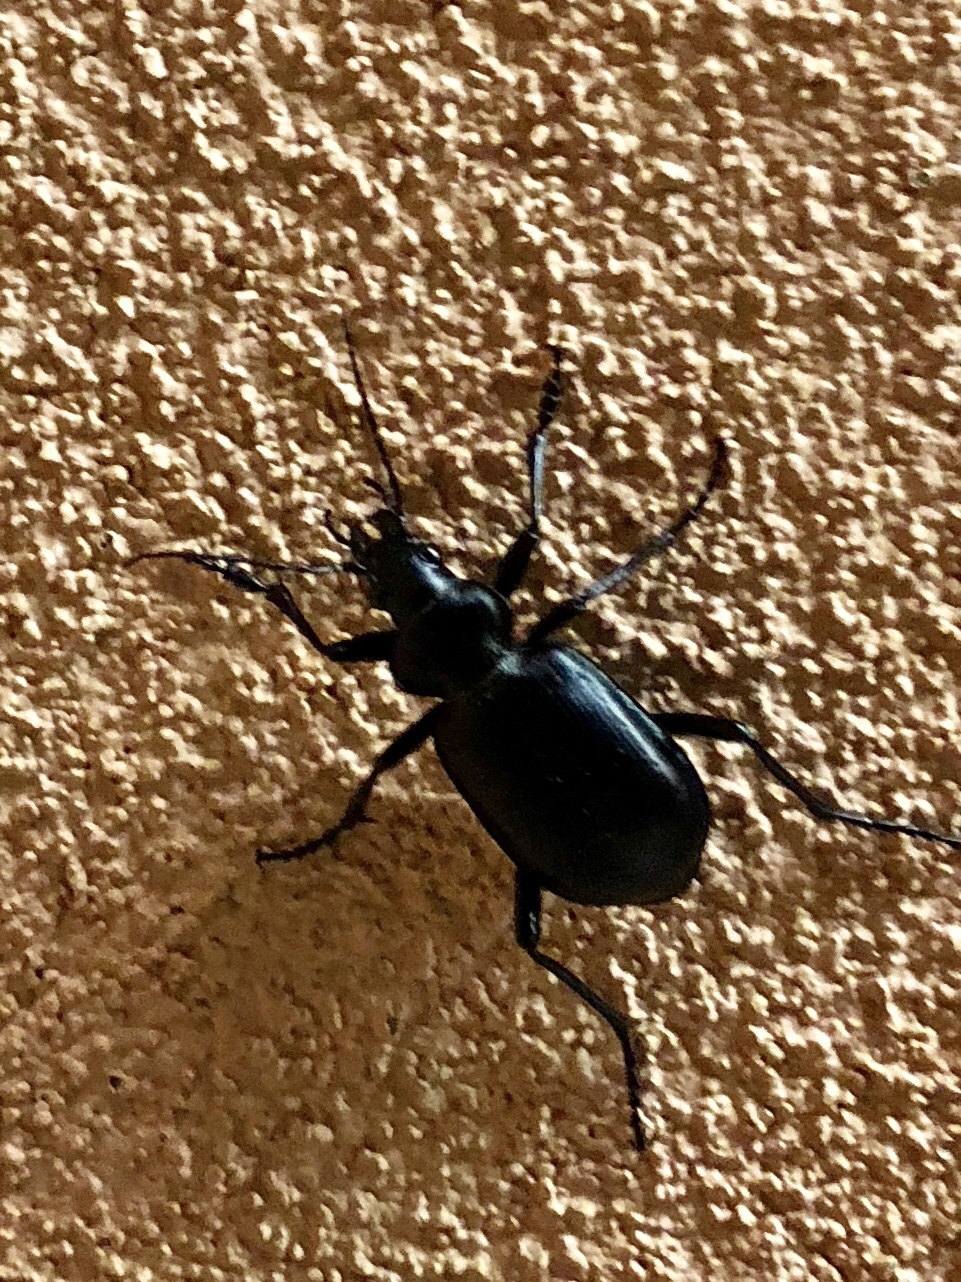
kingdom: Animalia
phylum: Arthropoda
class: Insecta
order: Coleoptera
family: Carabidae
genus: Calosoma
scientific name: Calosoma peregrinator
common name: Ground beetle
